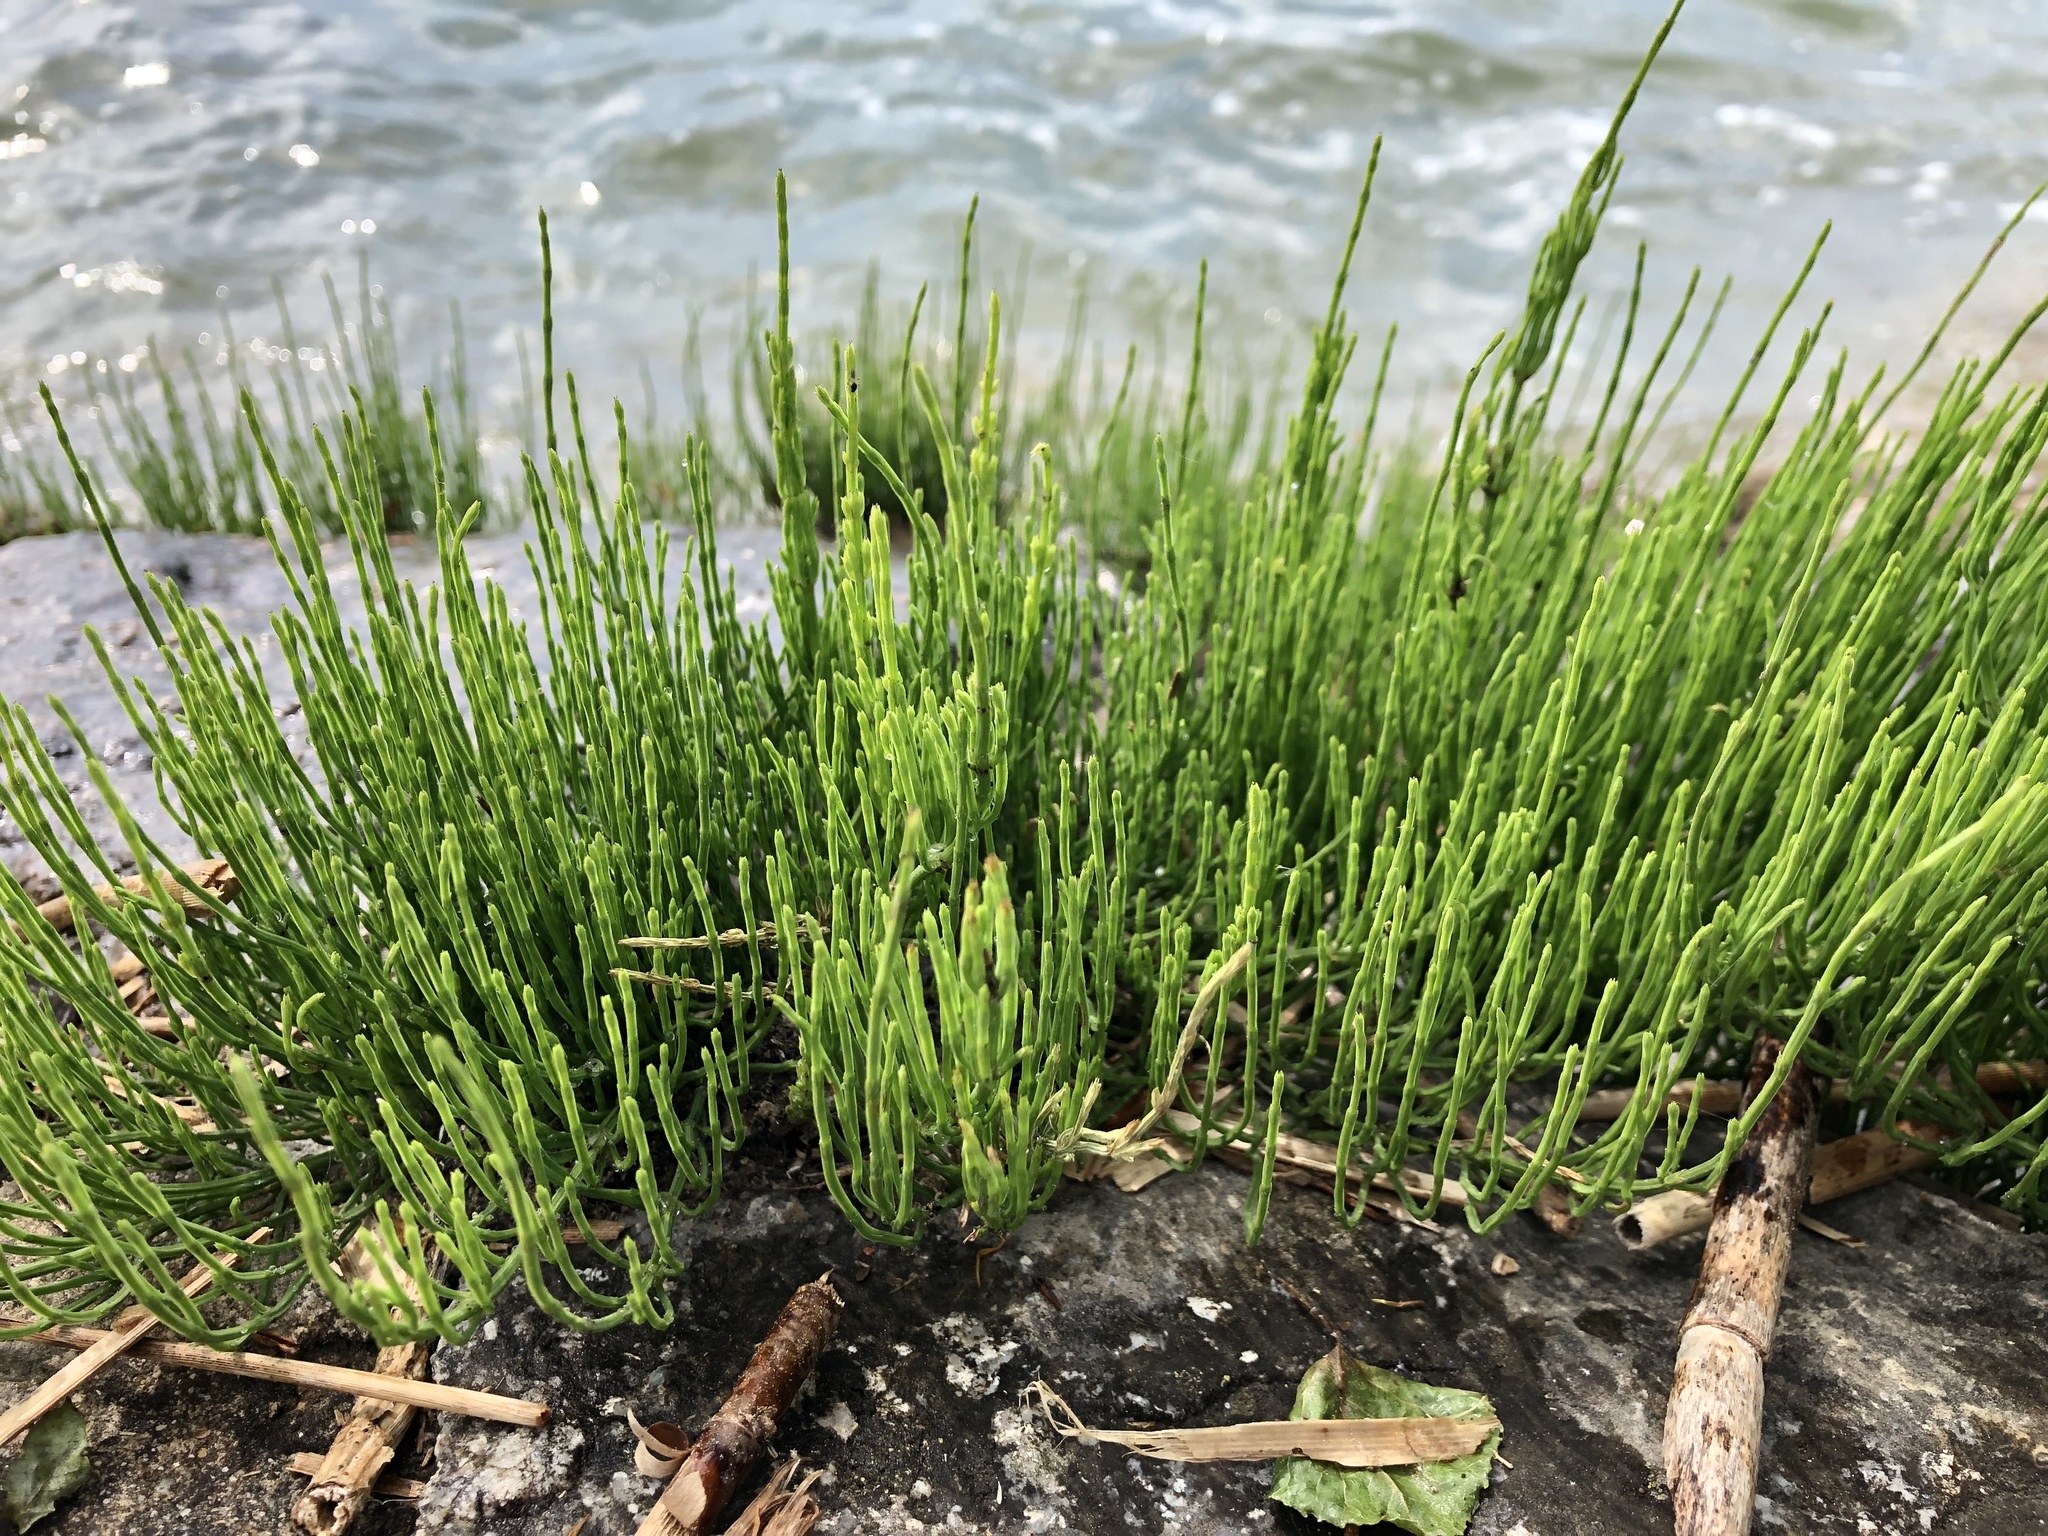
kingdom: Plantae
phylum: Tracheophyta
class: Polypodiopsida
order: Equisetales
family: Equisetaceae
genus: Equisetum
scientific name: Equisetum arvense
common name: Field horsetail
